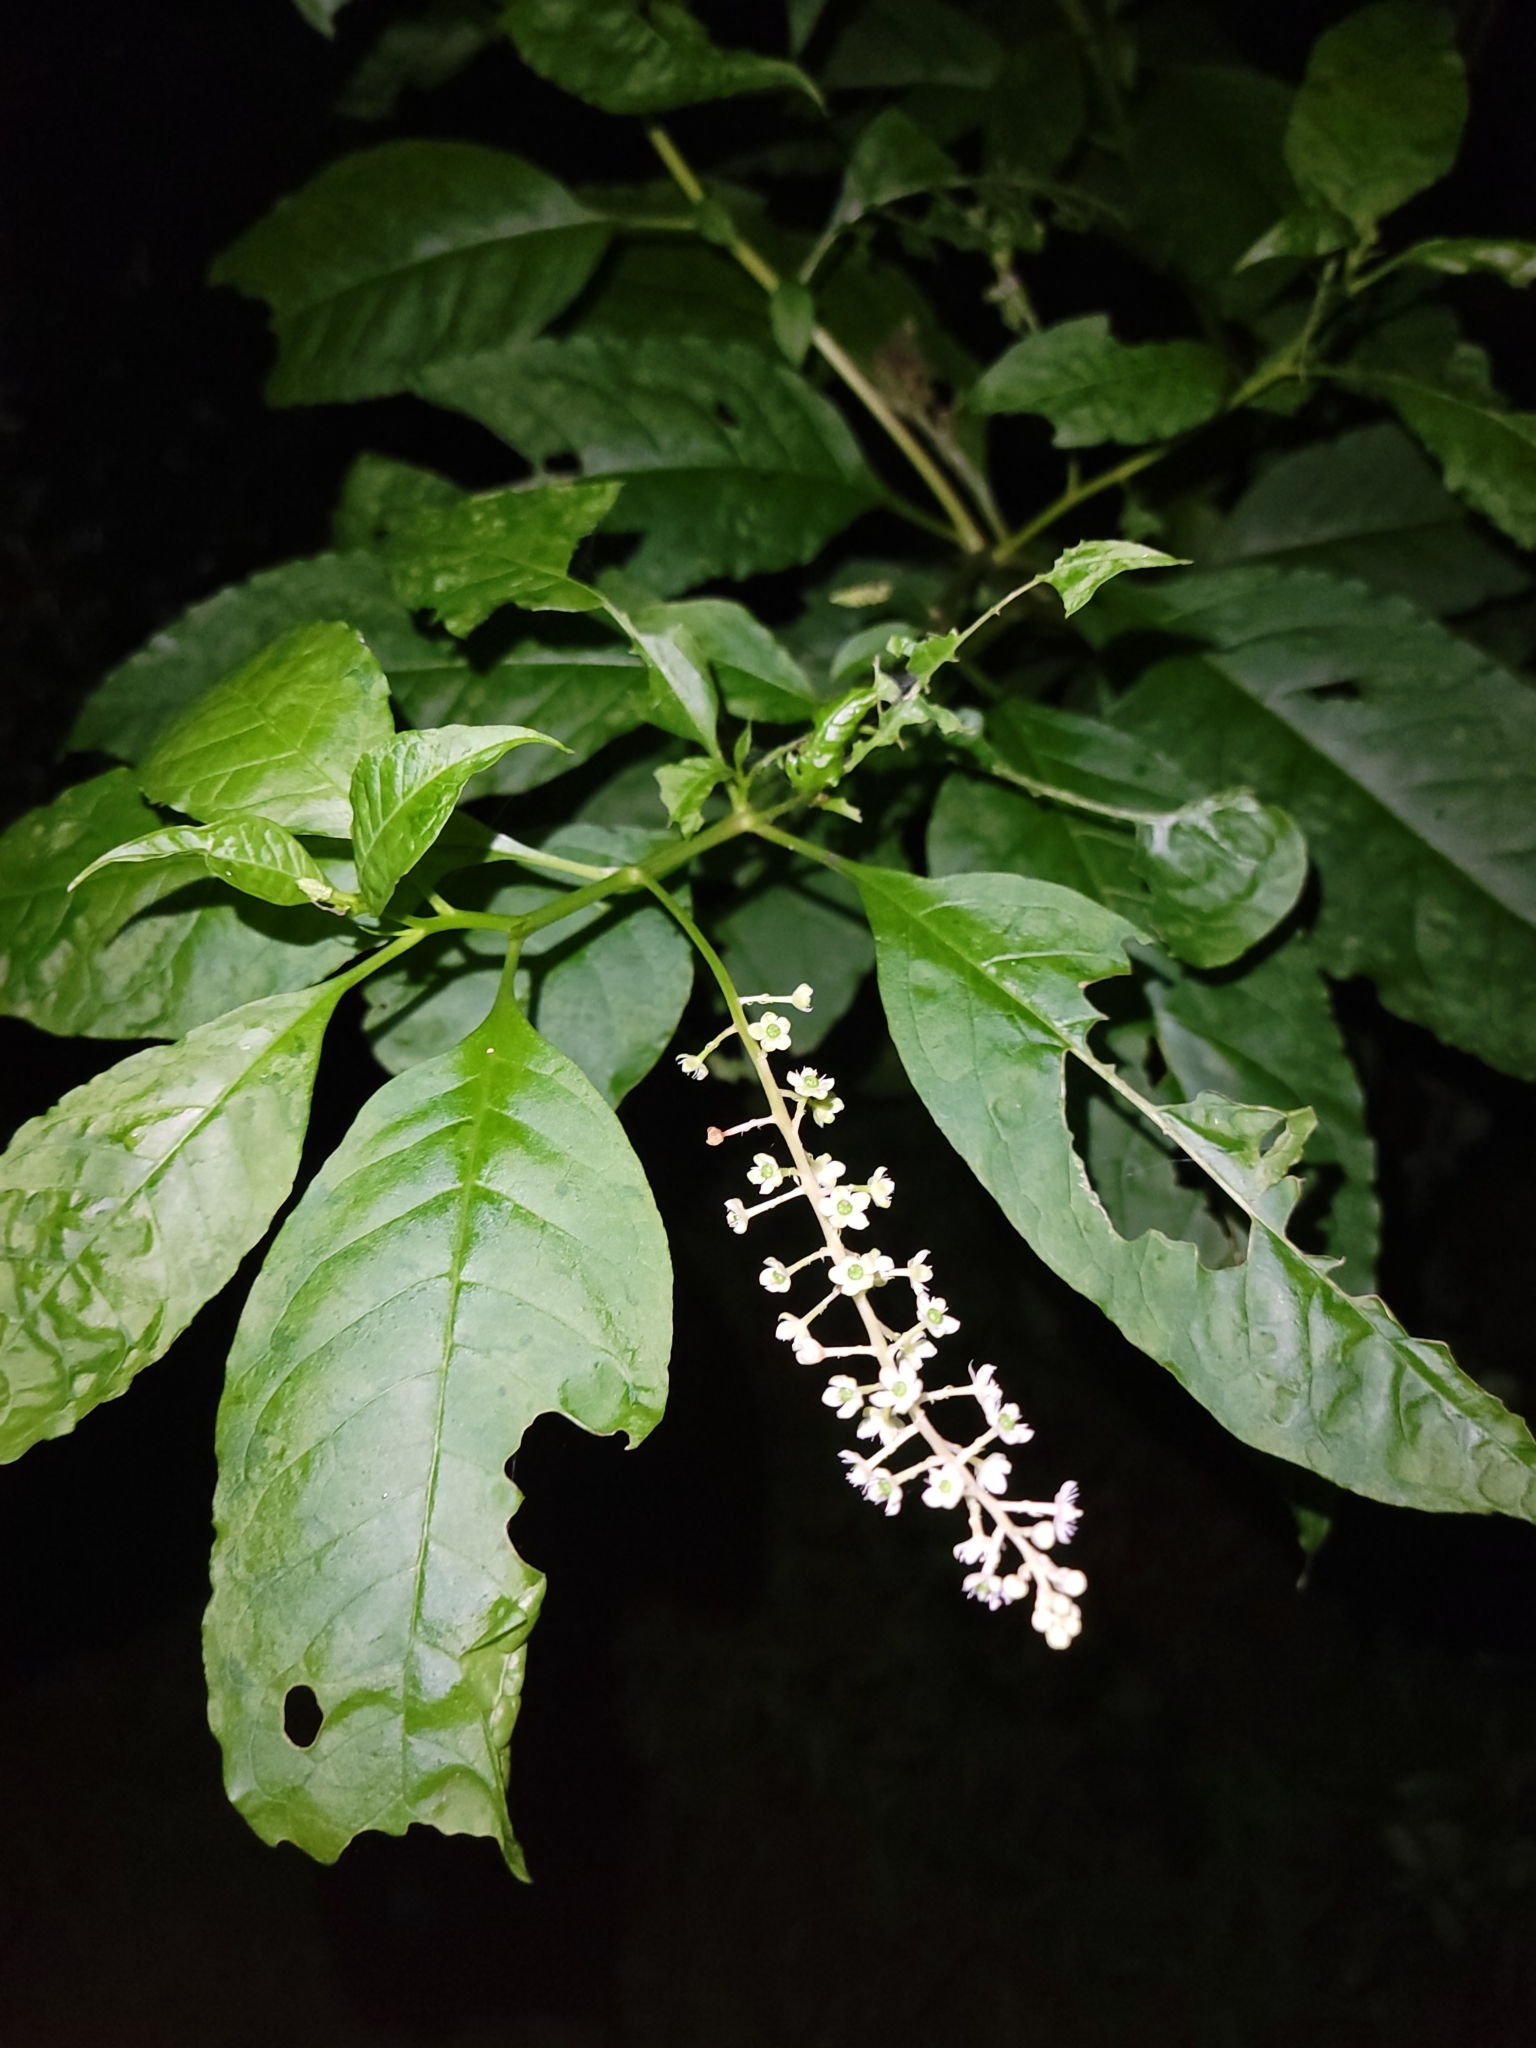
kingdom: Plantae
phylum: Tracheophyta
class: Magnoliopsida
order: Caryophyllales
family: Phytolaccaceae
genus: Phytolacca
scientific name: Phytolacca americana
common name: American pokeweed
